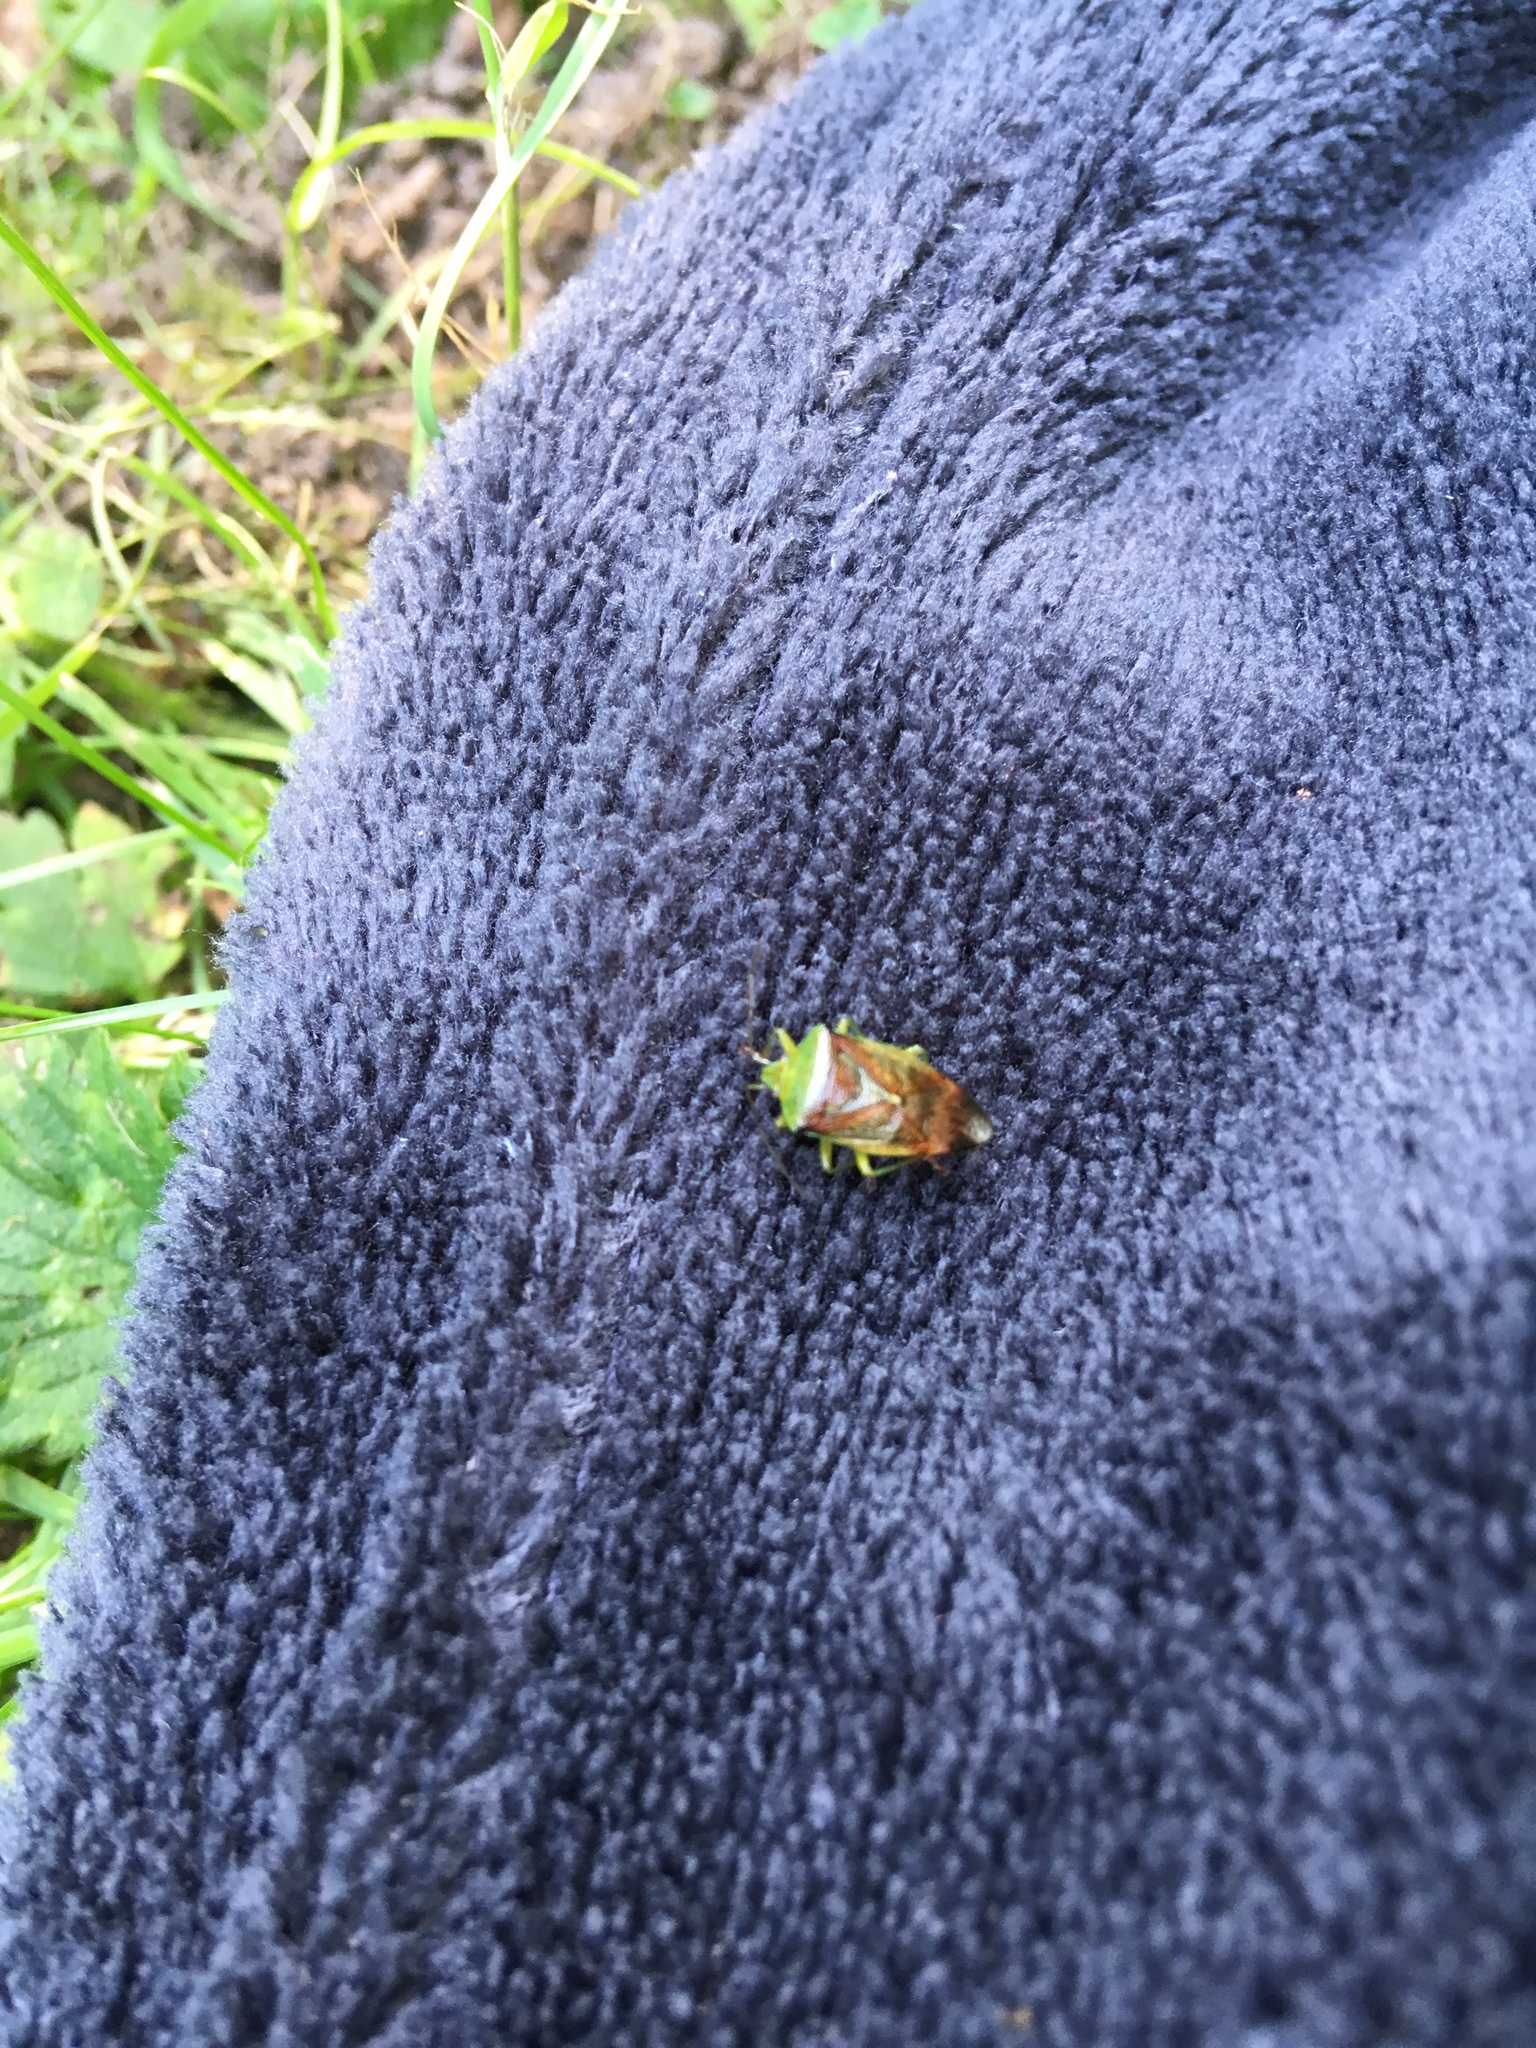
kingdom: Animalia
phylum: Arthropoda
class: Insecta
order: Hemiptera
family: Acanthosomatidae
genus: Elasmostethus
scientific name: Elasmostethus interstinctus
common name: Birch shieldbug
